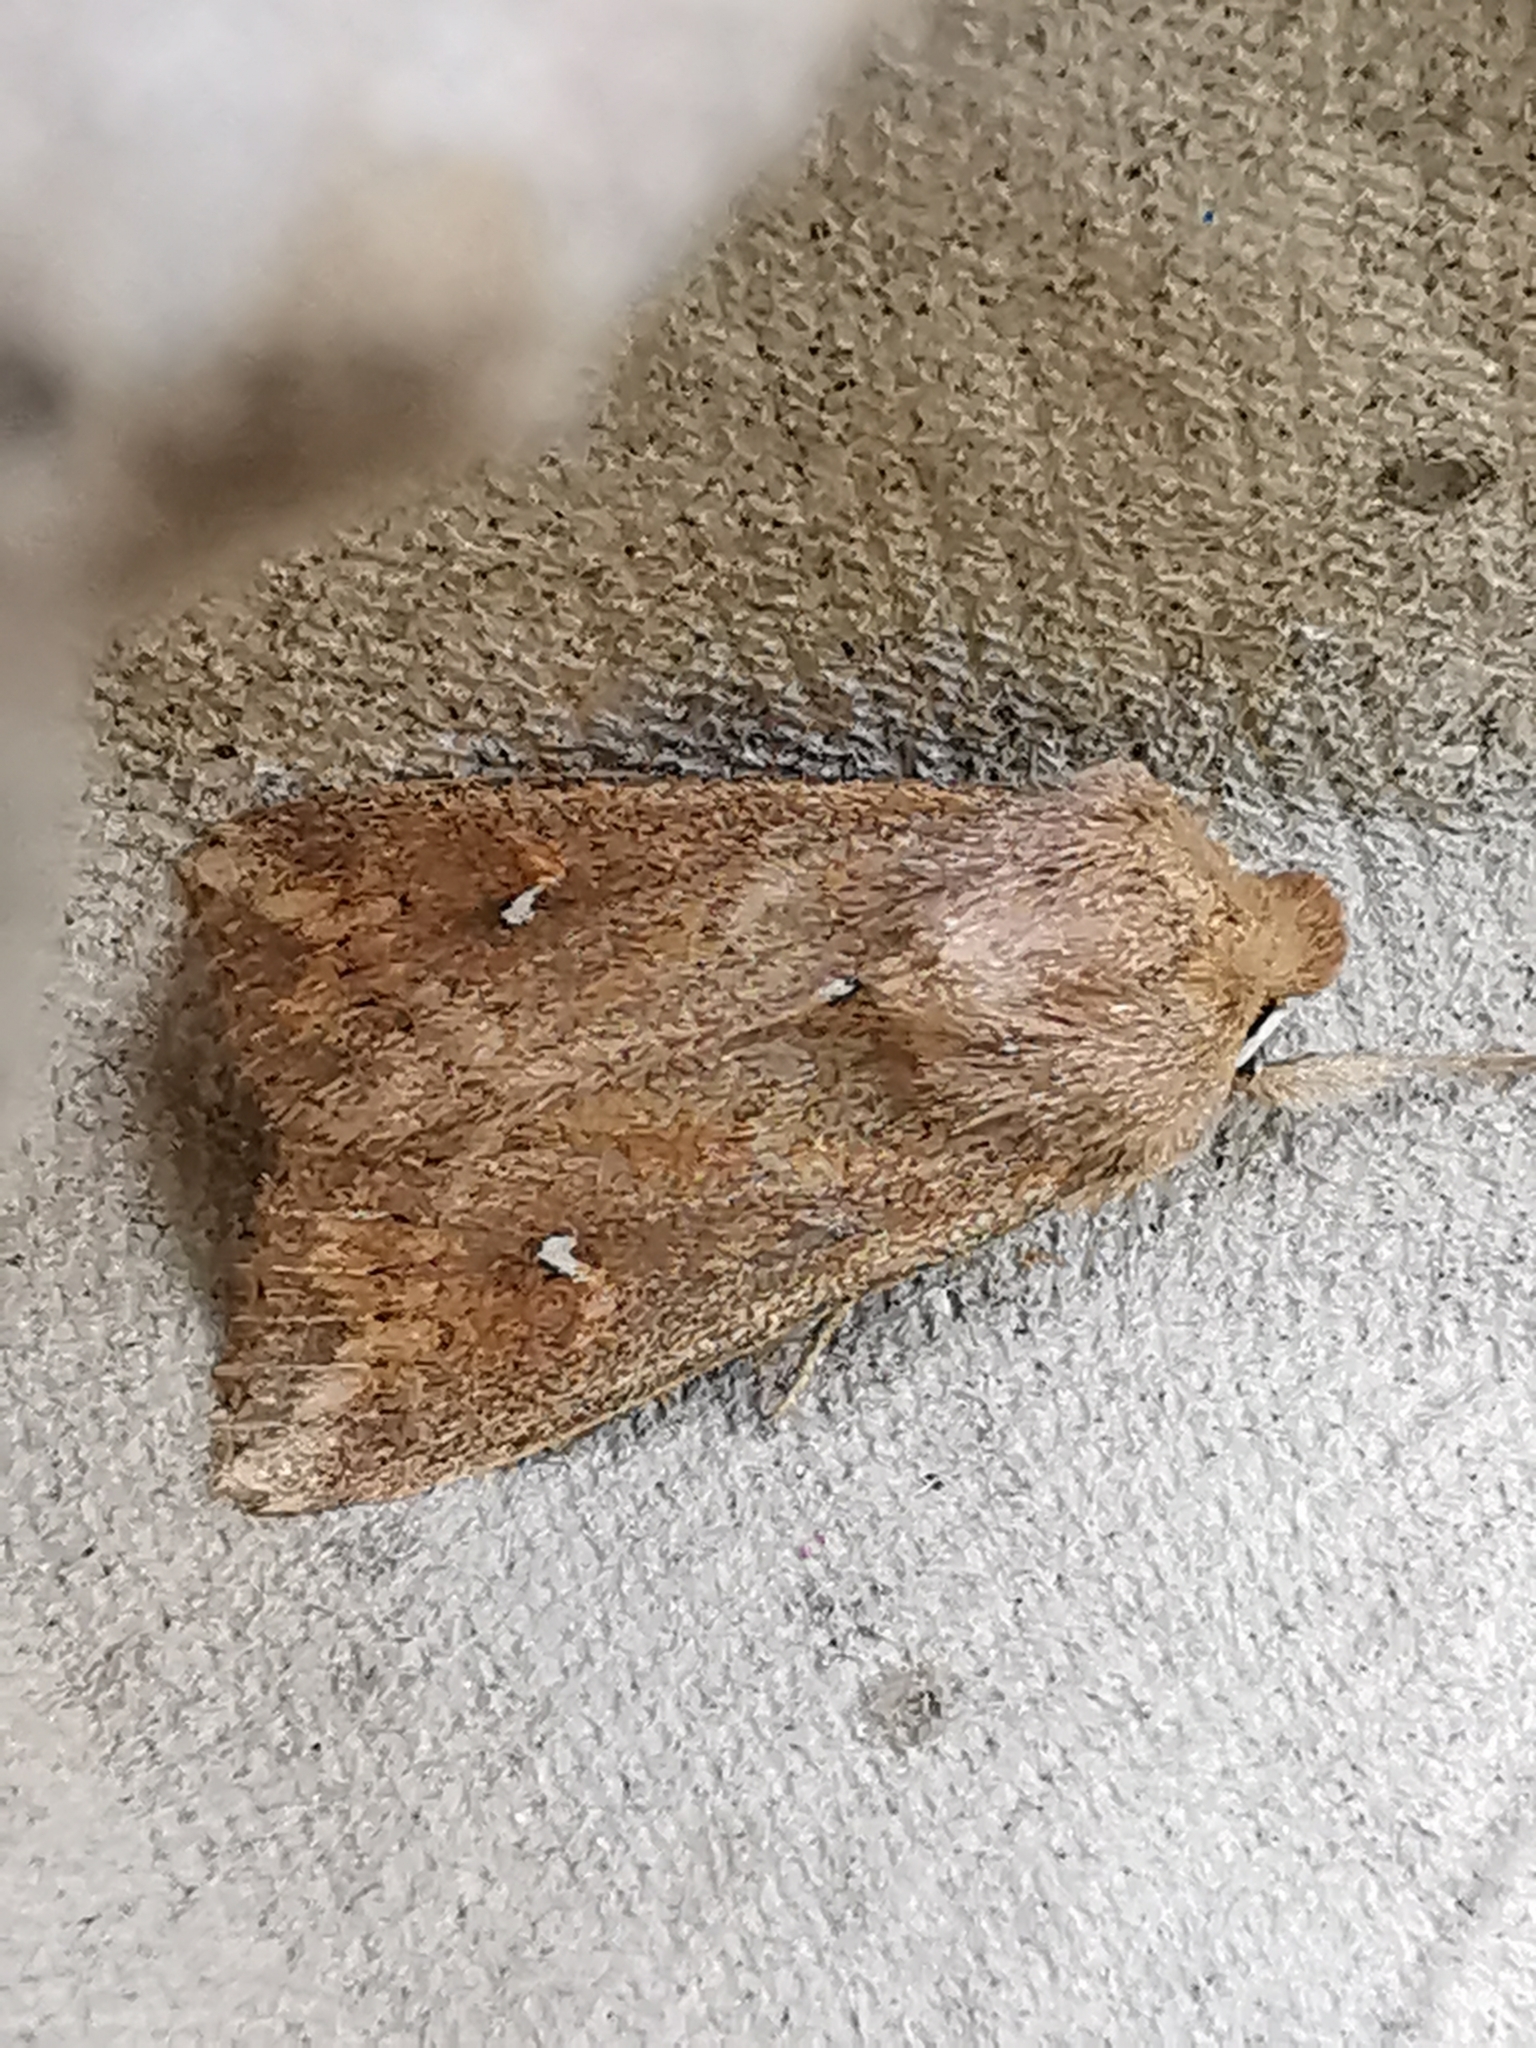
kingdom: Animalia
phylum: Arthropoda
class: Insecta
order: Lepidoptera
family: Noctuidae
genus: Mythimna
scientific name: Mythimna albipuncta
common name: White-point
